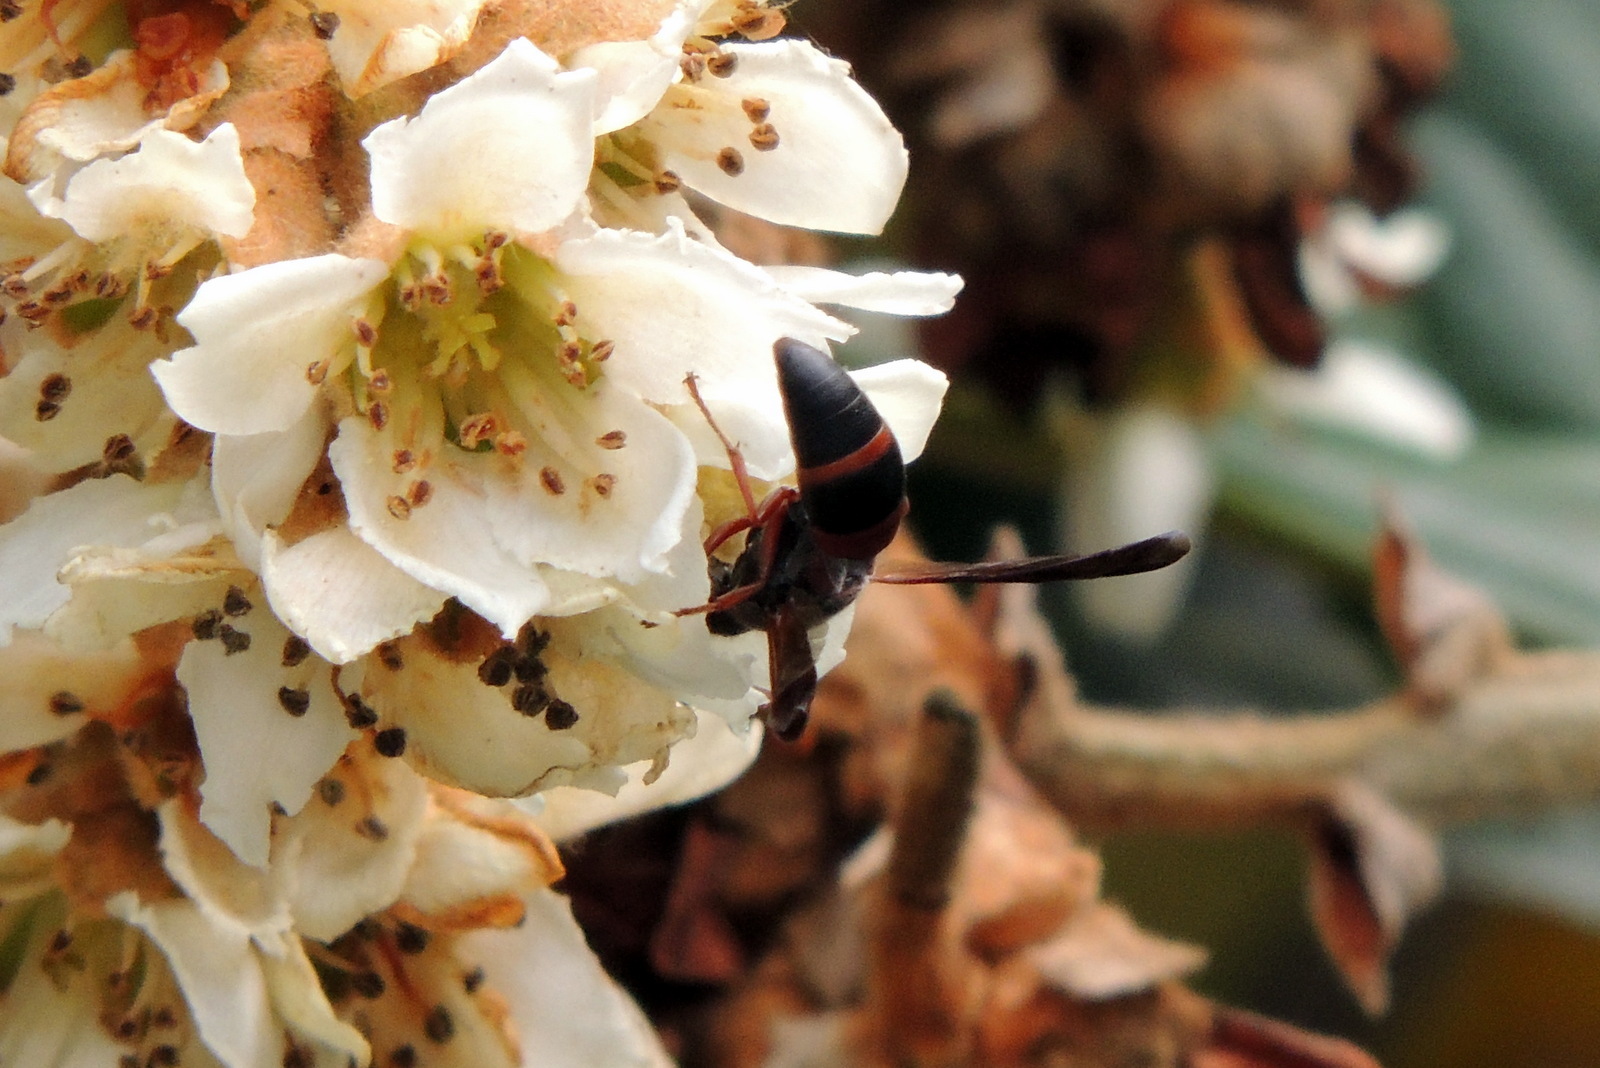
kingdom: Animalia
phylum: Arthropoda
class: Insecta
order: Hymenoptera
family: Eumenidae
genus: Pachodynerus
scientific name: Pachodynerus erynnis
